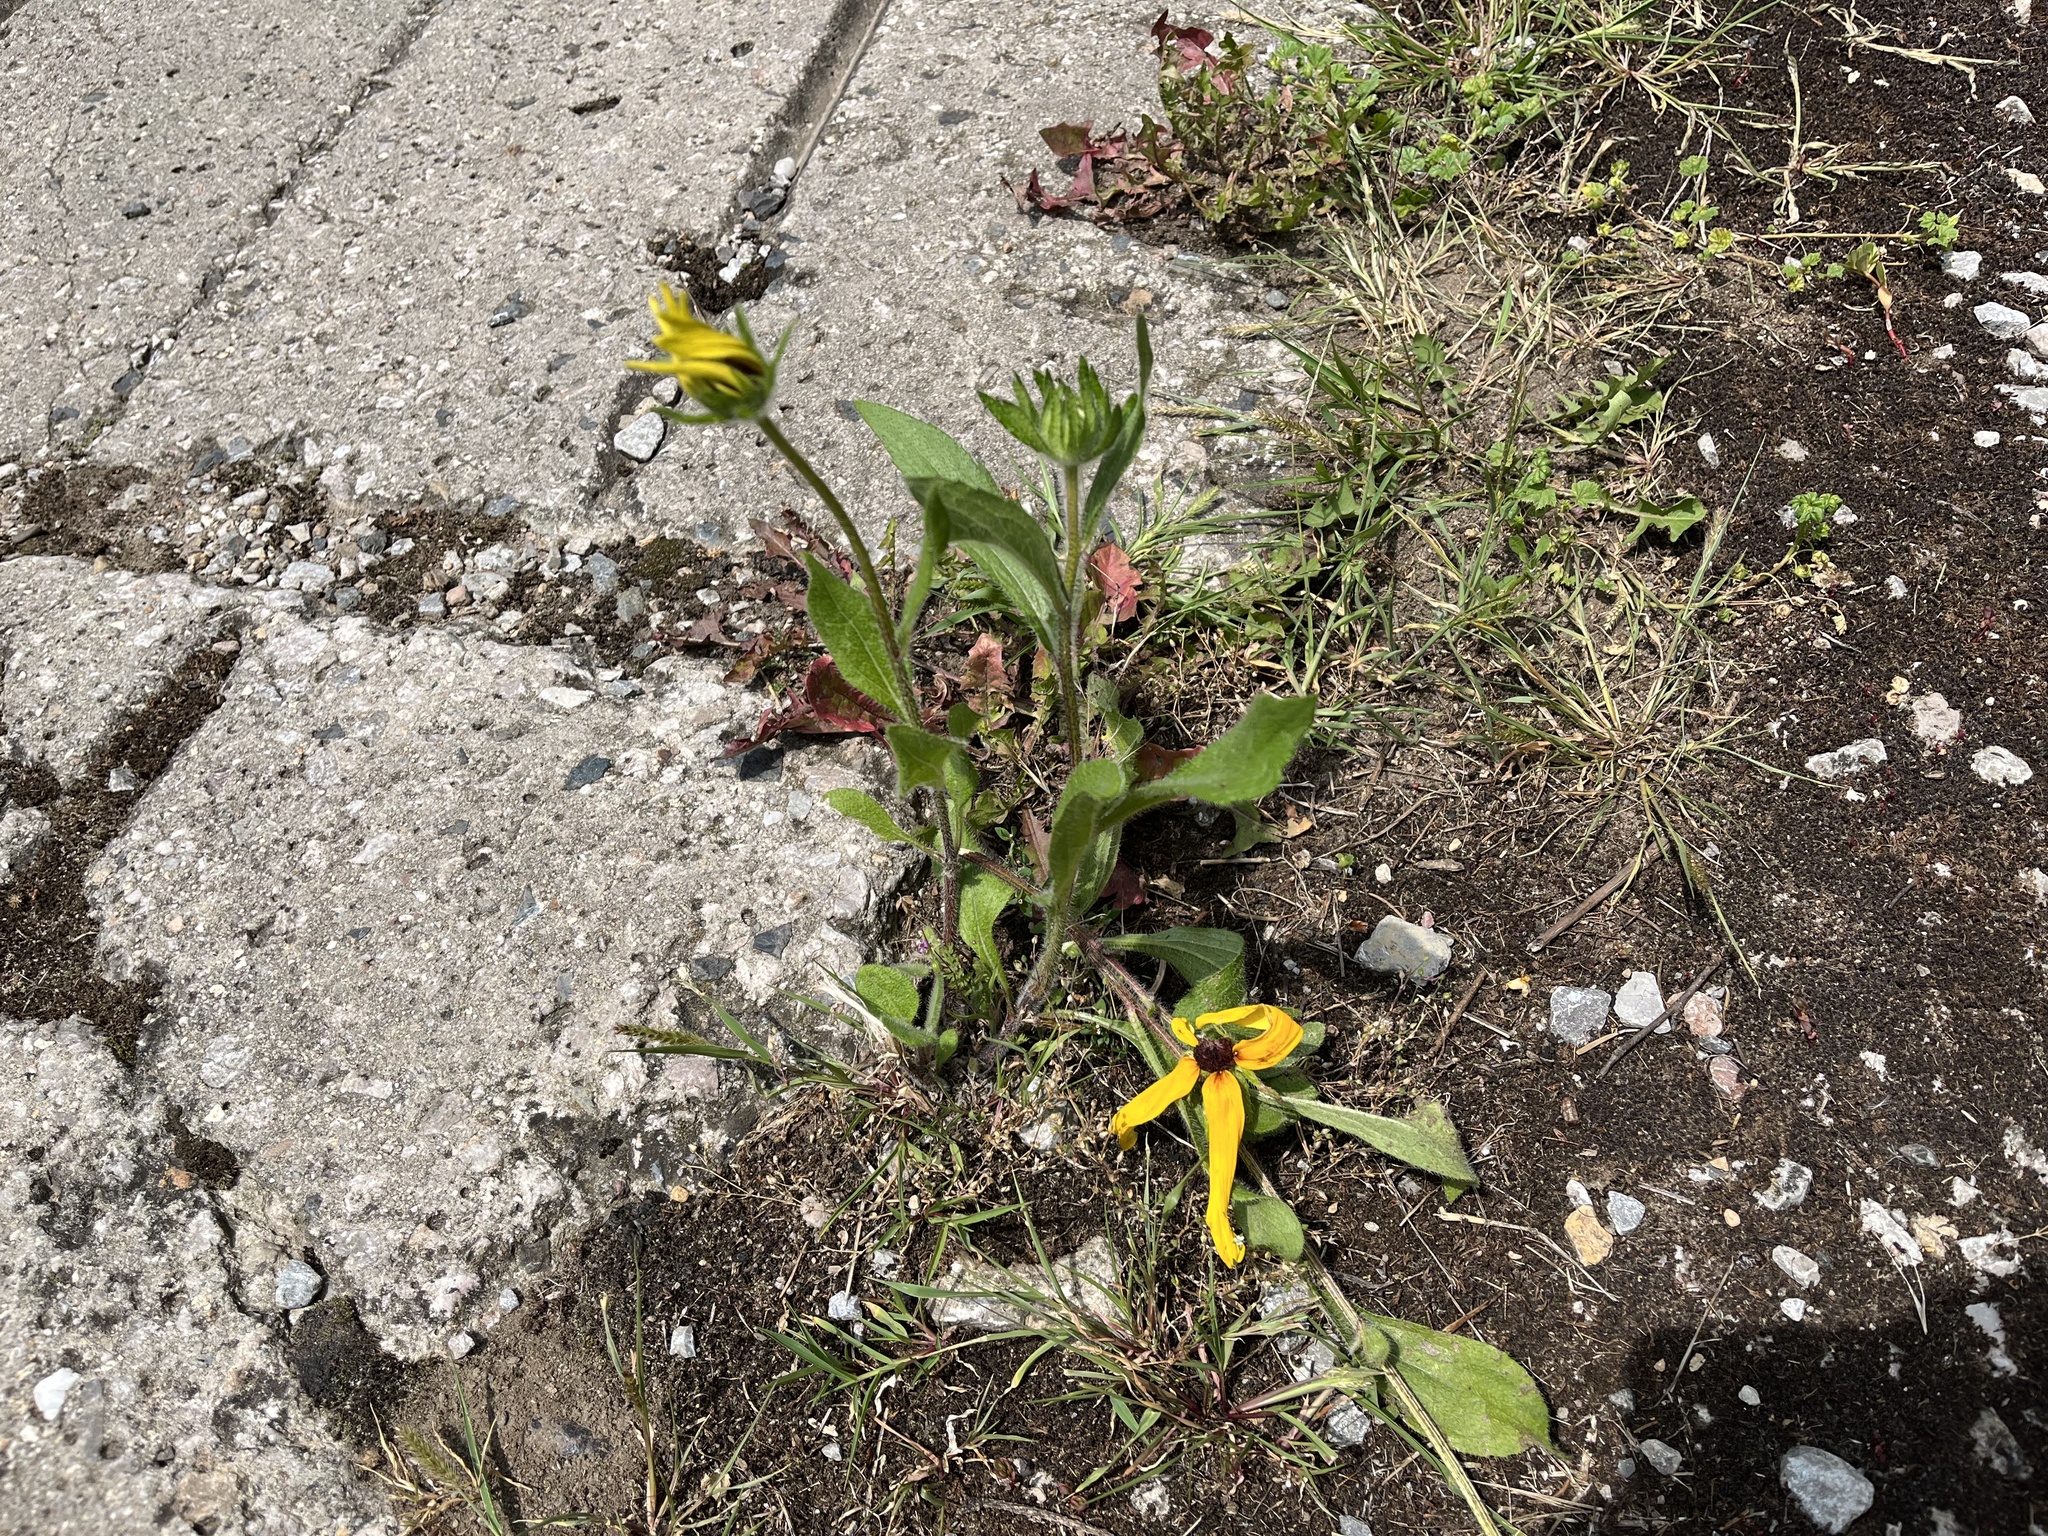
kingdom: Plantae
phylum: Tracheophyta
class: Magnoliopsida
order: Asterales
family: Asteraceae
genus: Rudbeckia
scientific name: Rudbeckia hirta
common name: Black-eyed-susan
